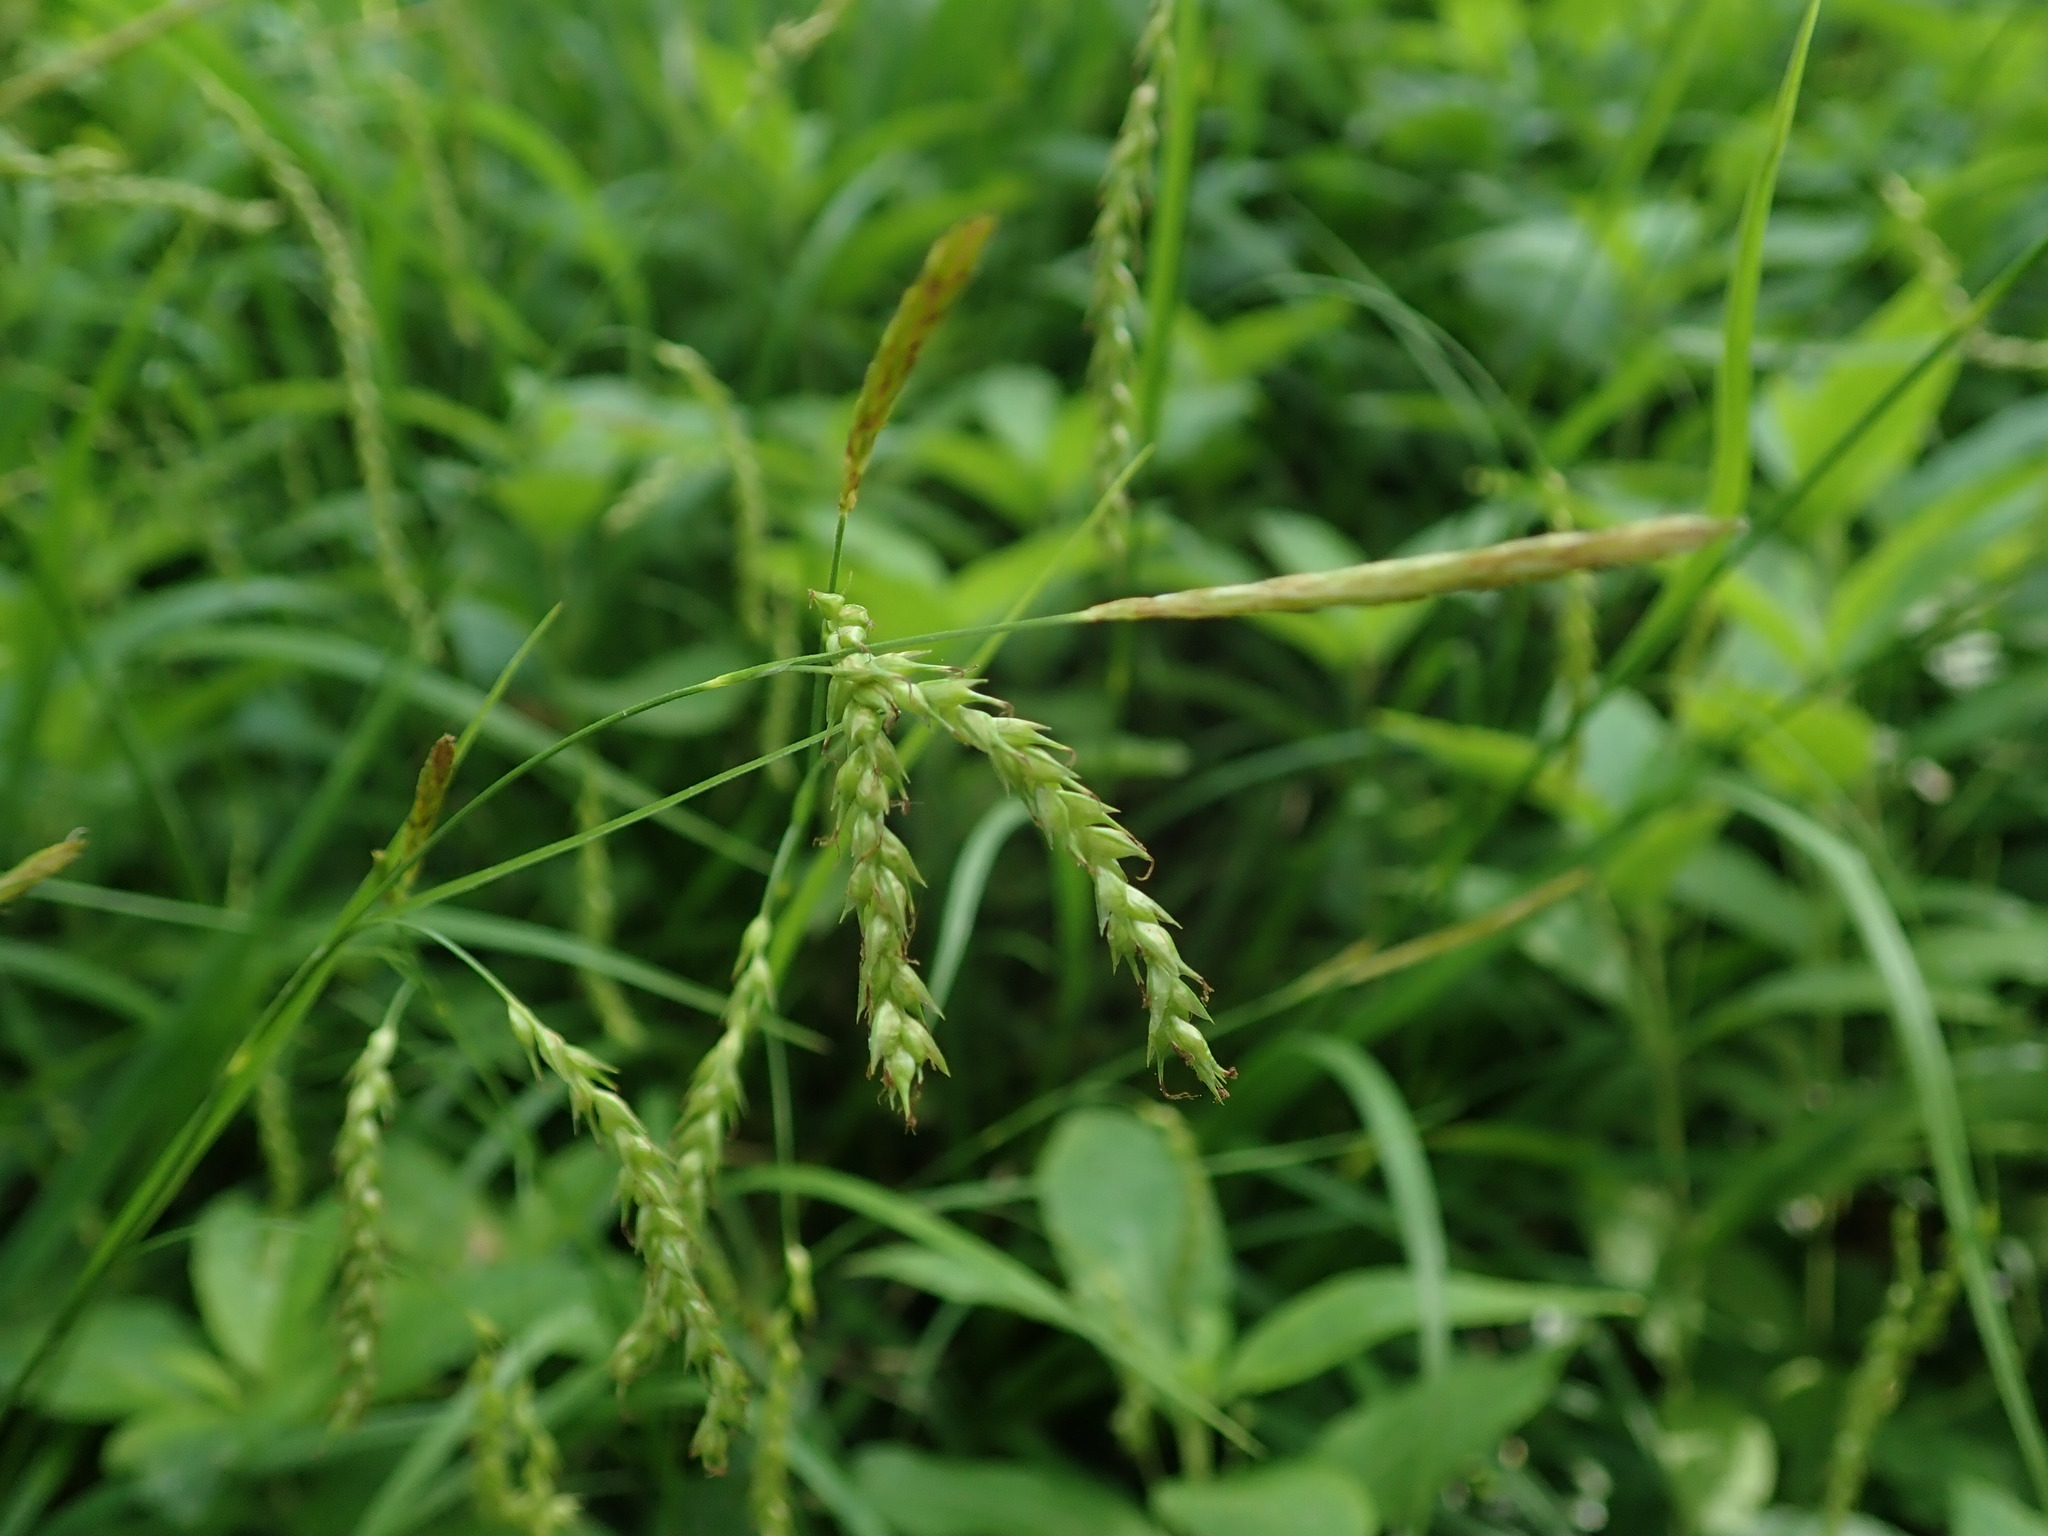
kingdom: Plantae
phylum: Tracheophyta
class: Liliopsida
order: Poales
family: Cyperaceae
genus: Carex
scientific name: Carex sylvatica
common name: Wood-sedge
